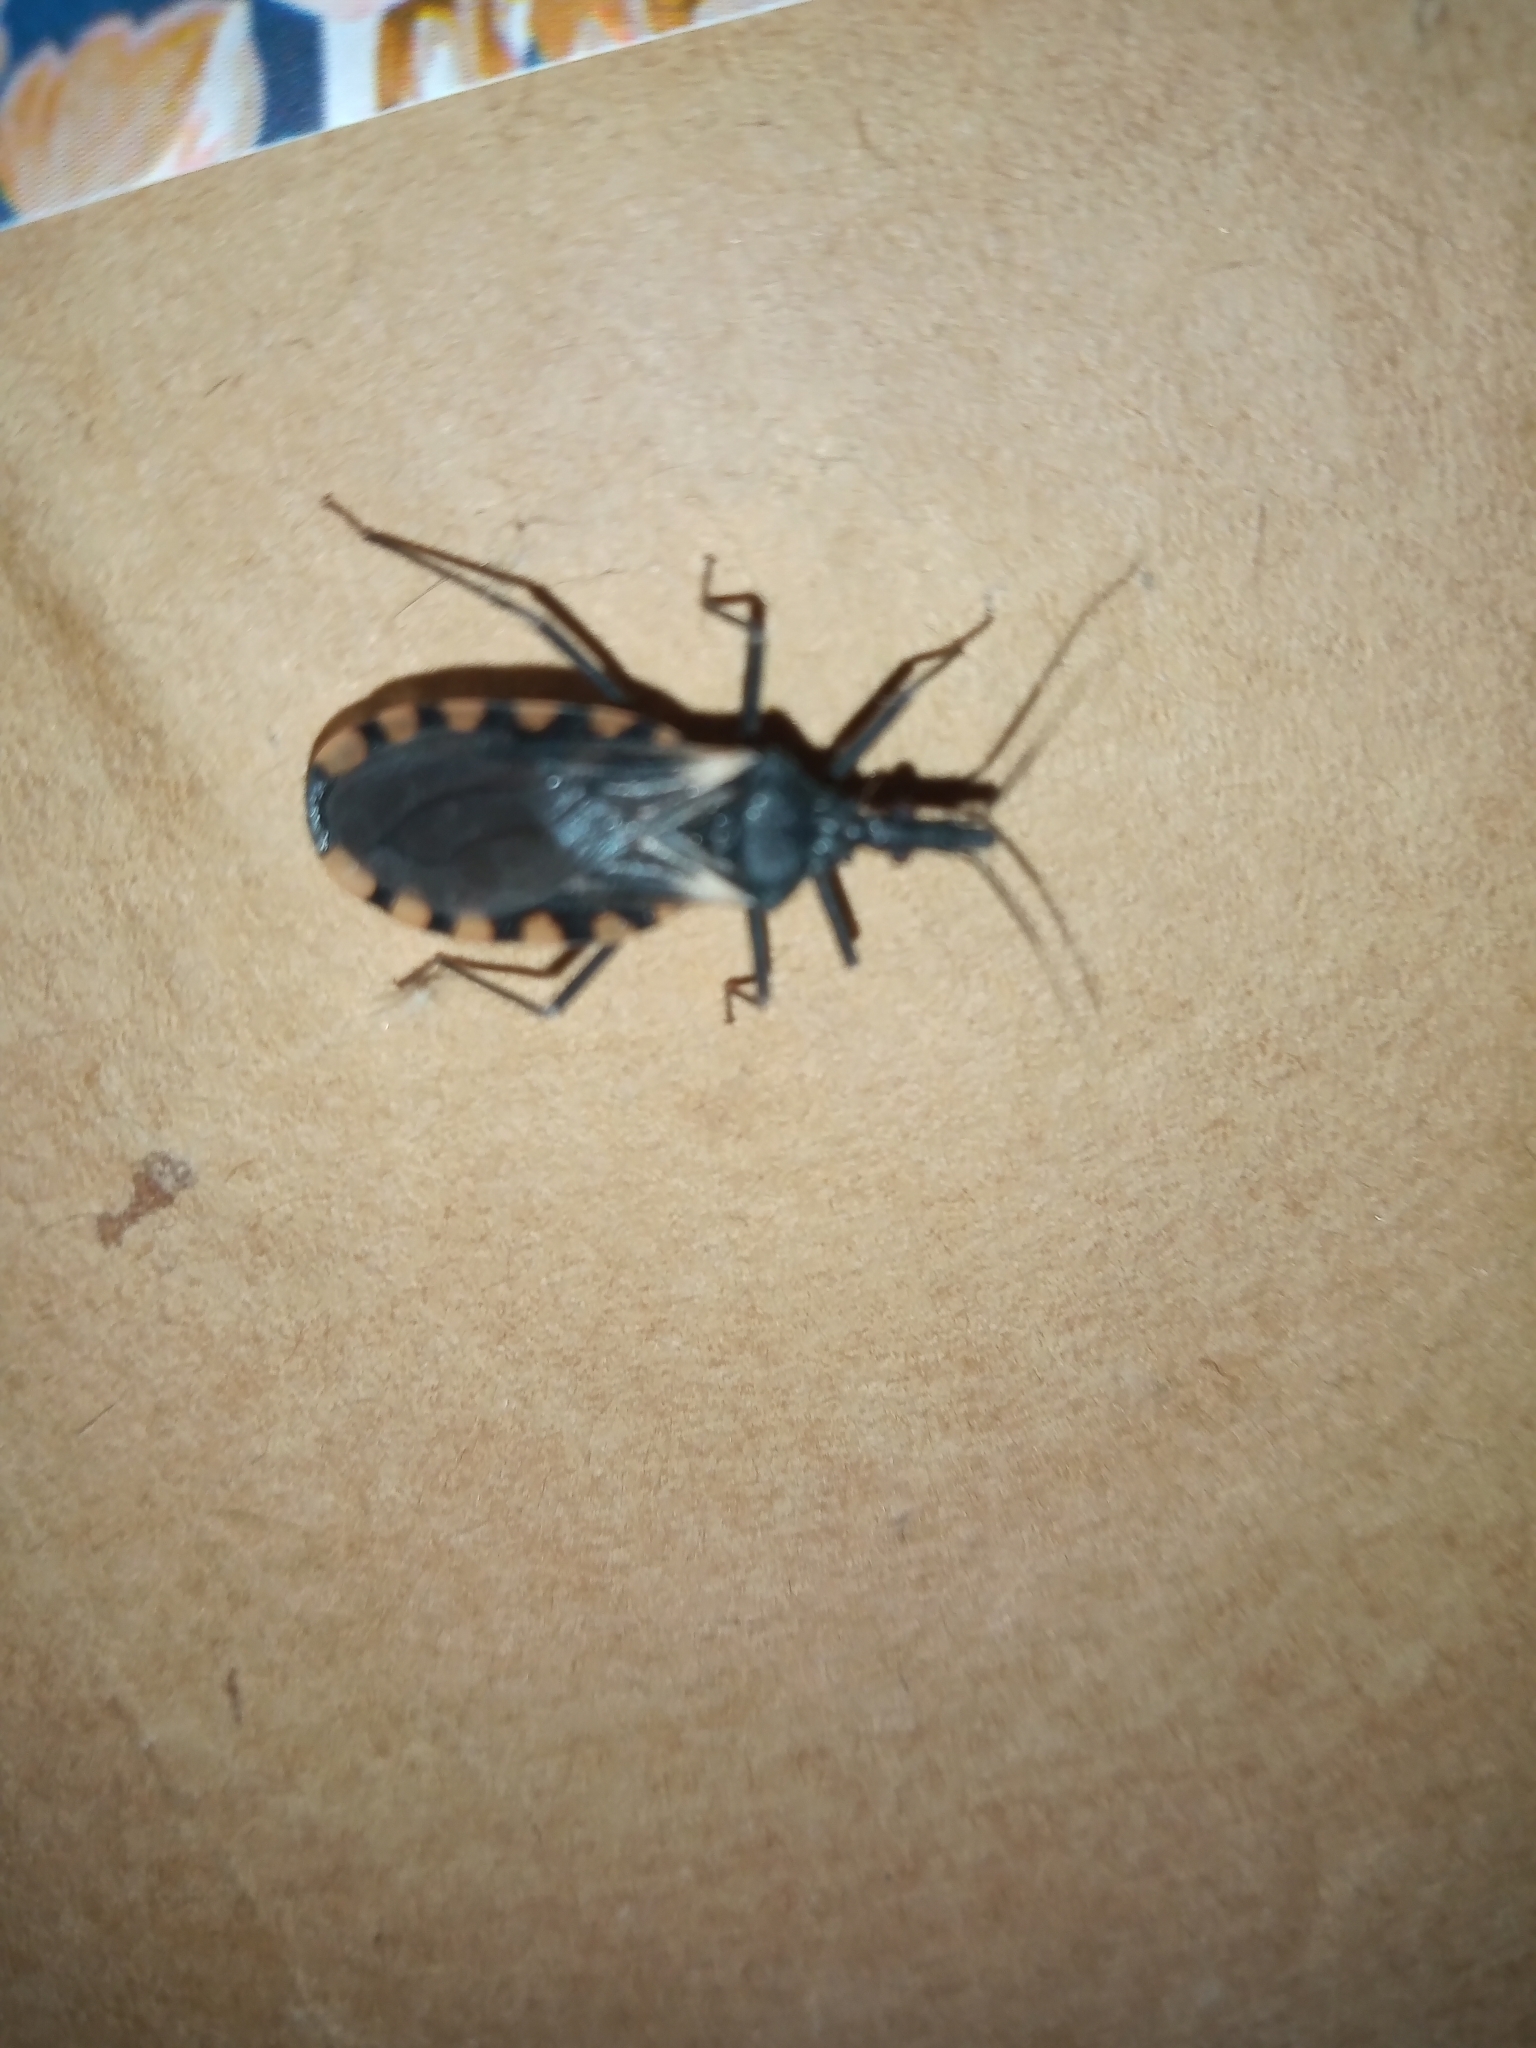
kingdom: Animalia
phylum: Arthropoda
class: Insecta
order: Hemiptera
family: Reduviidae
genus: Triatoma
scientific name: Triatoma patagonica
